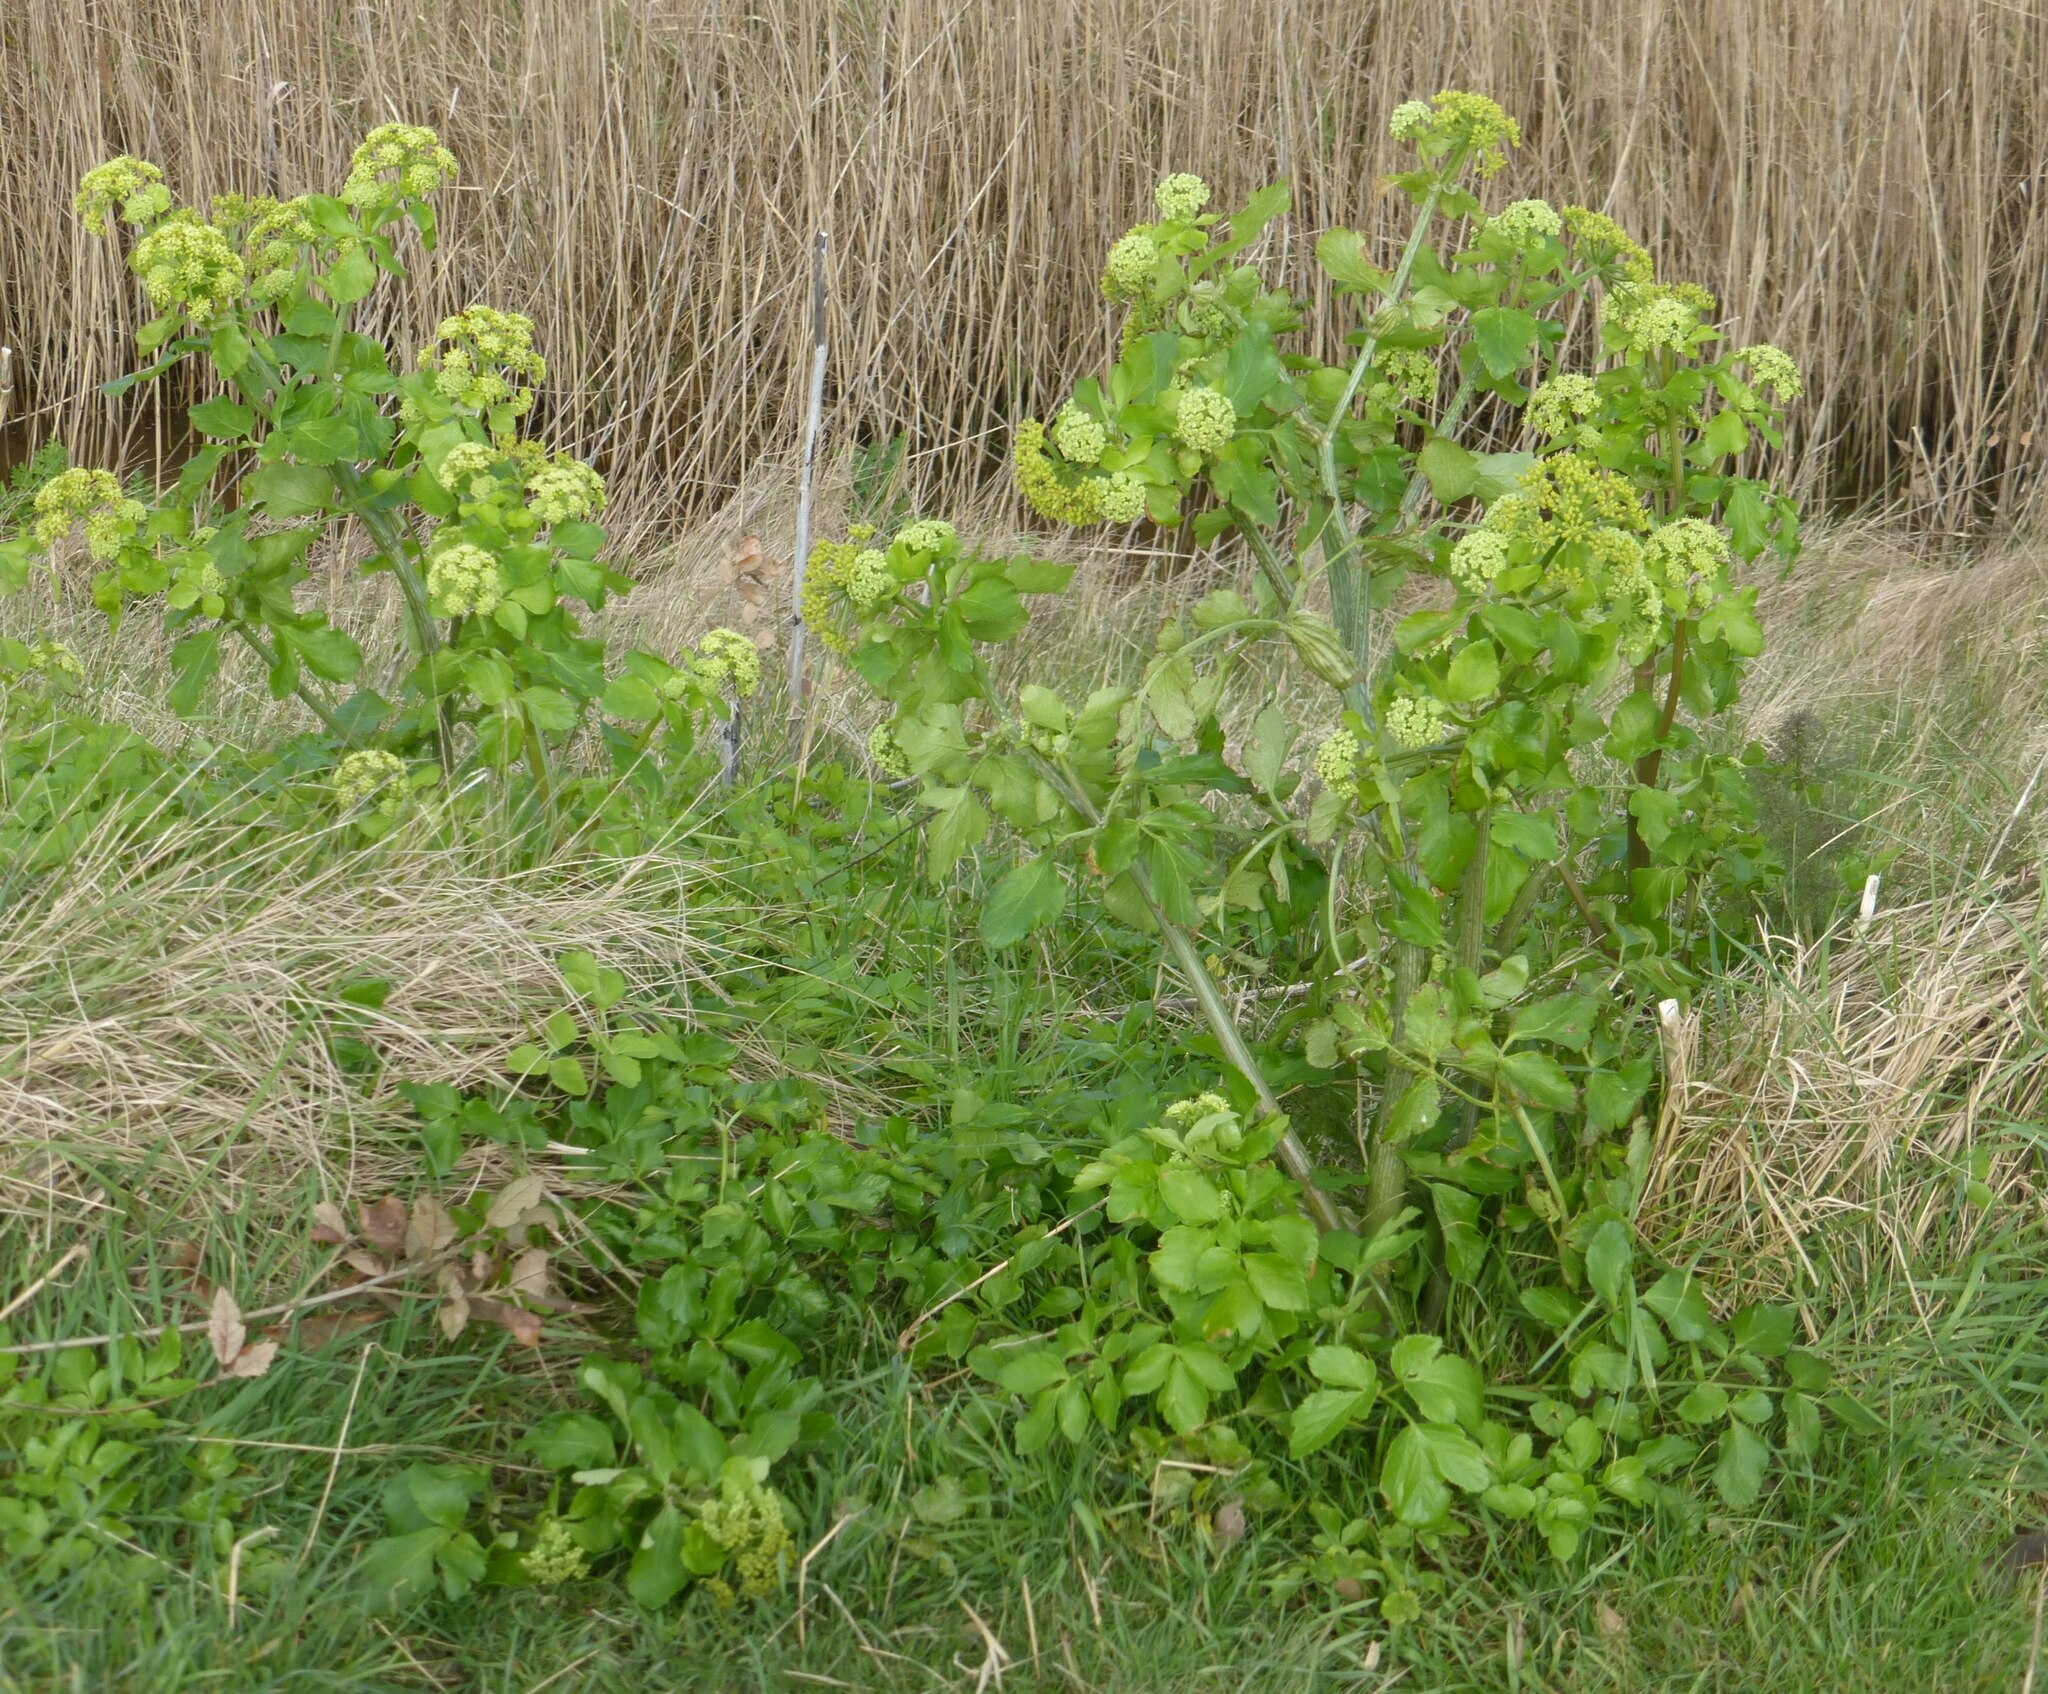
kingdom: Plantae
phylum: Tracheophyta
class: Magnoliopsida
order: Apiales
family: Apiaceae
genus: Smyrnium
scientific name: Smyrnium olusatrum
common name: Alexanders
